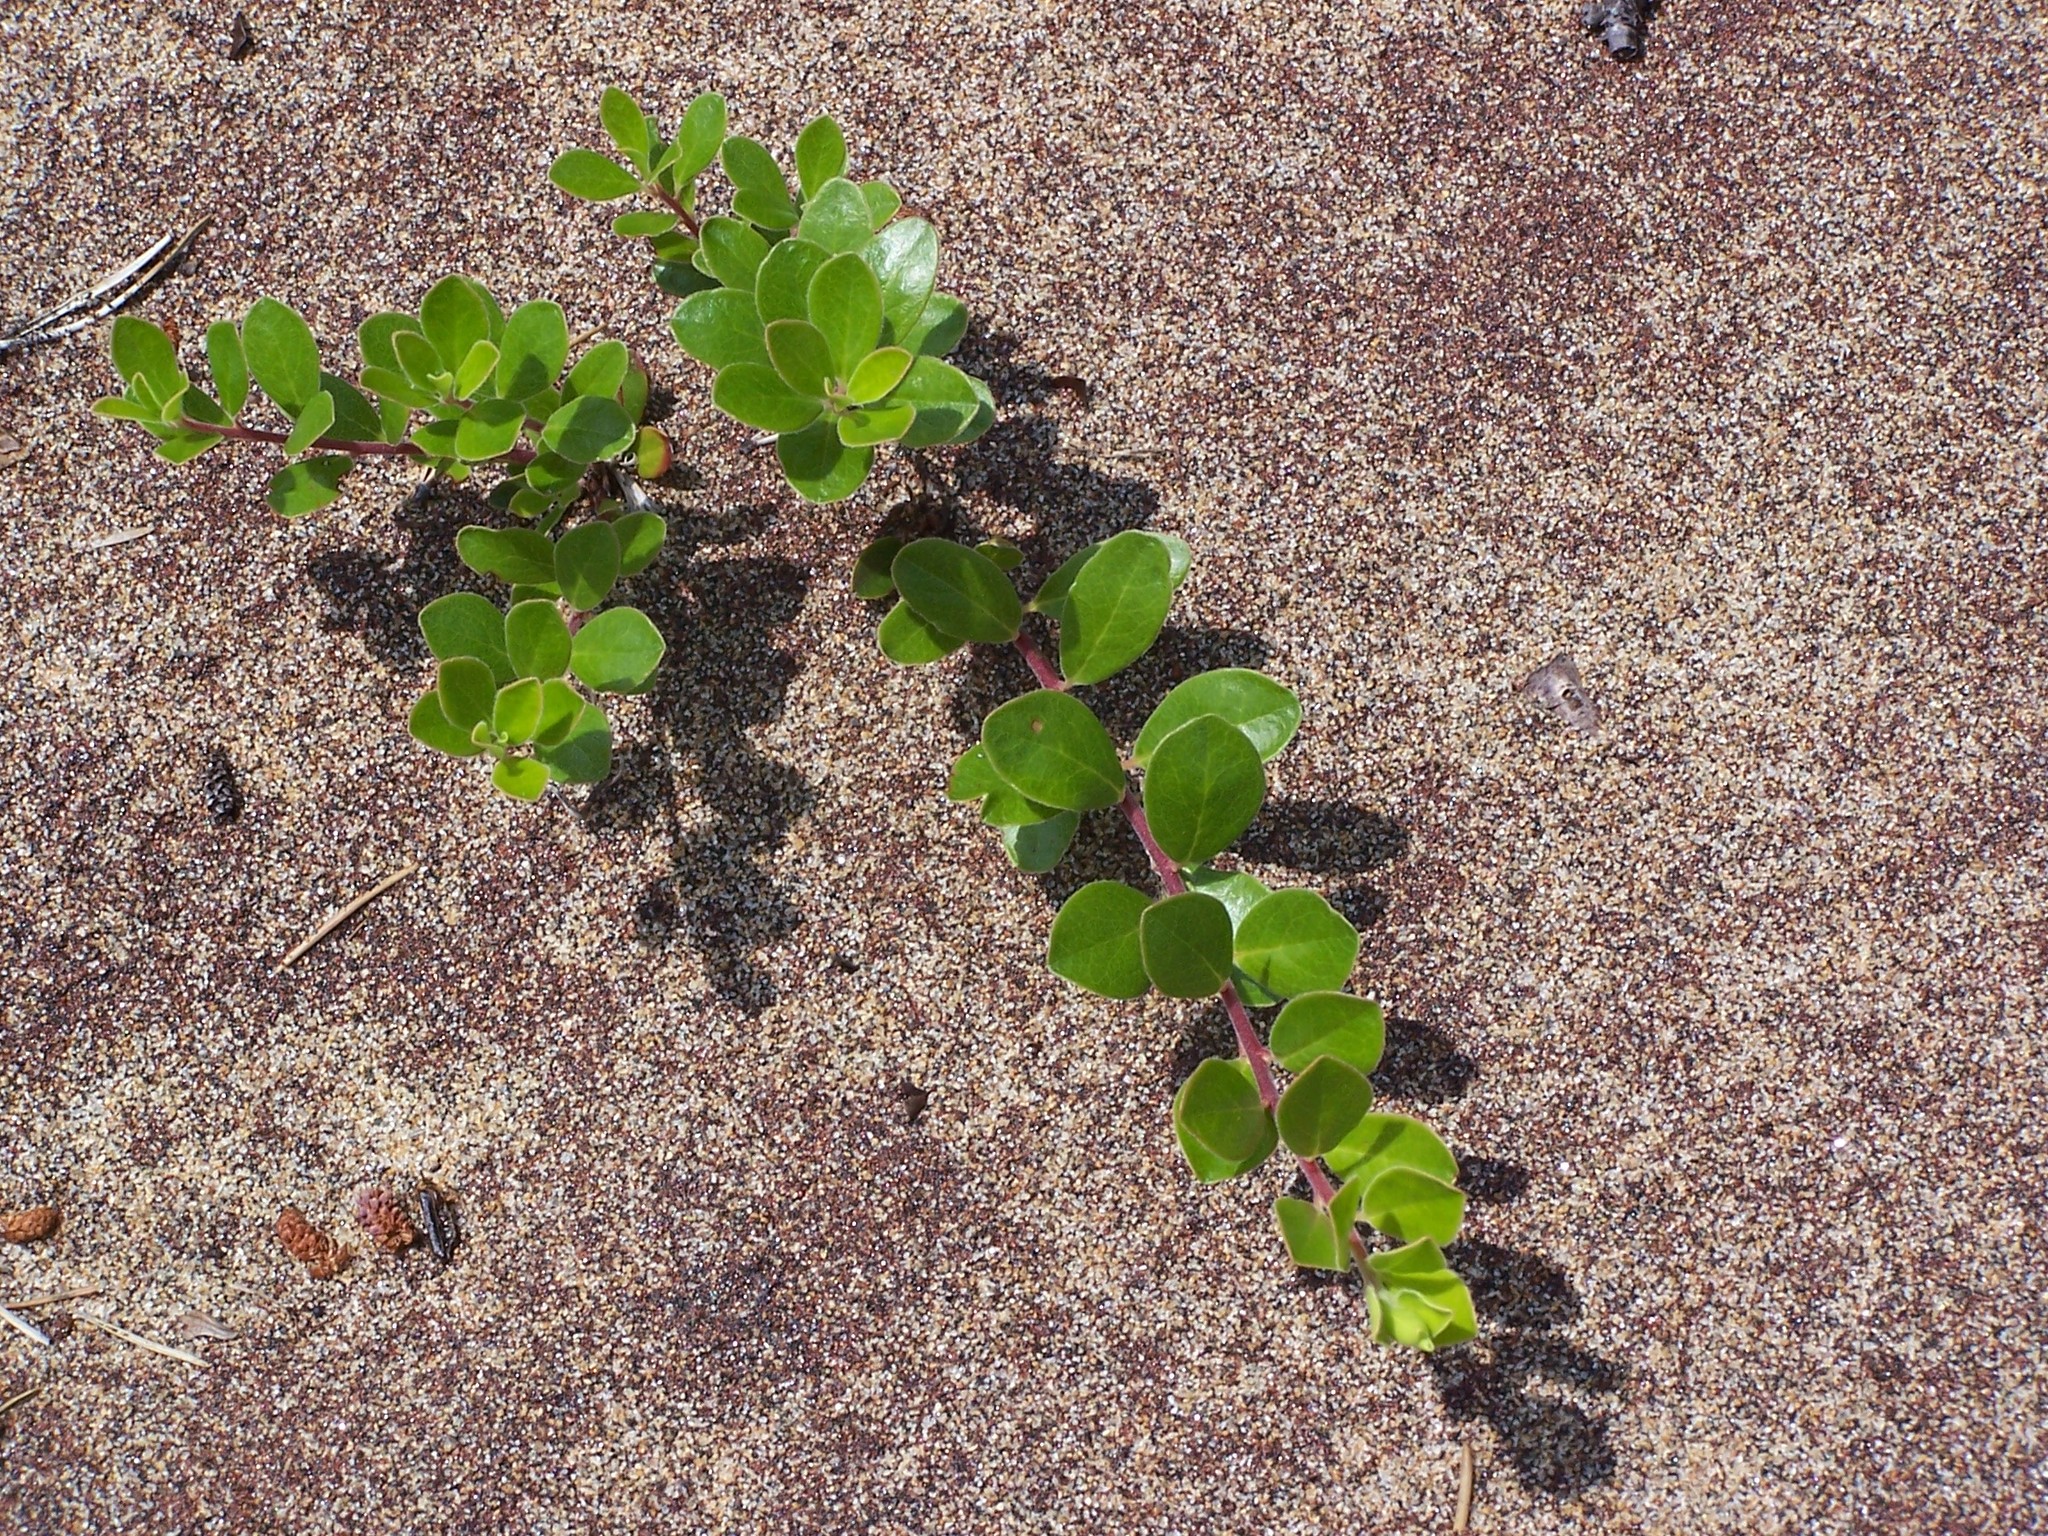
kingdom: Plantae
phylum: Tracheophyta
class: Magnoliopsida
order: Ericales
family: Ericaceae
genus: Arctostaphylos
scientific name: Arctostaphylos uva-ursi
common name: Bearberry
